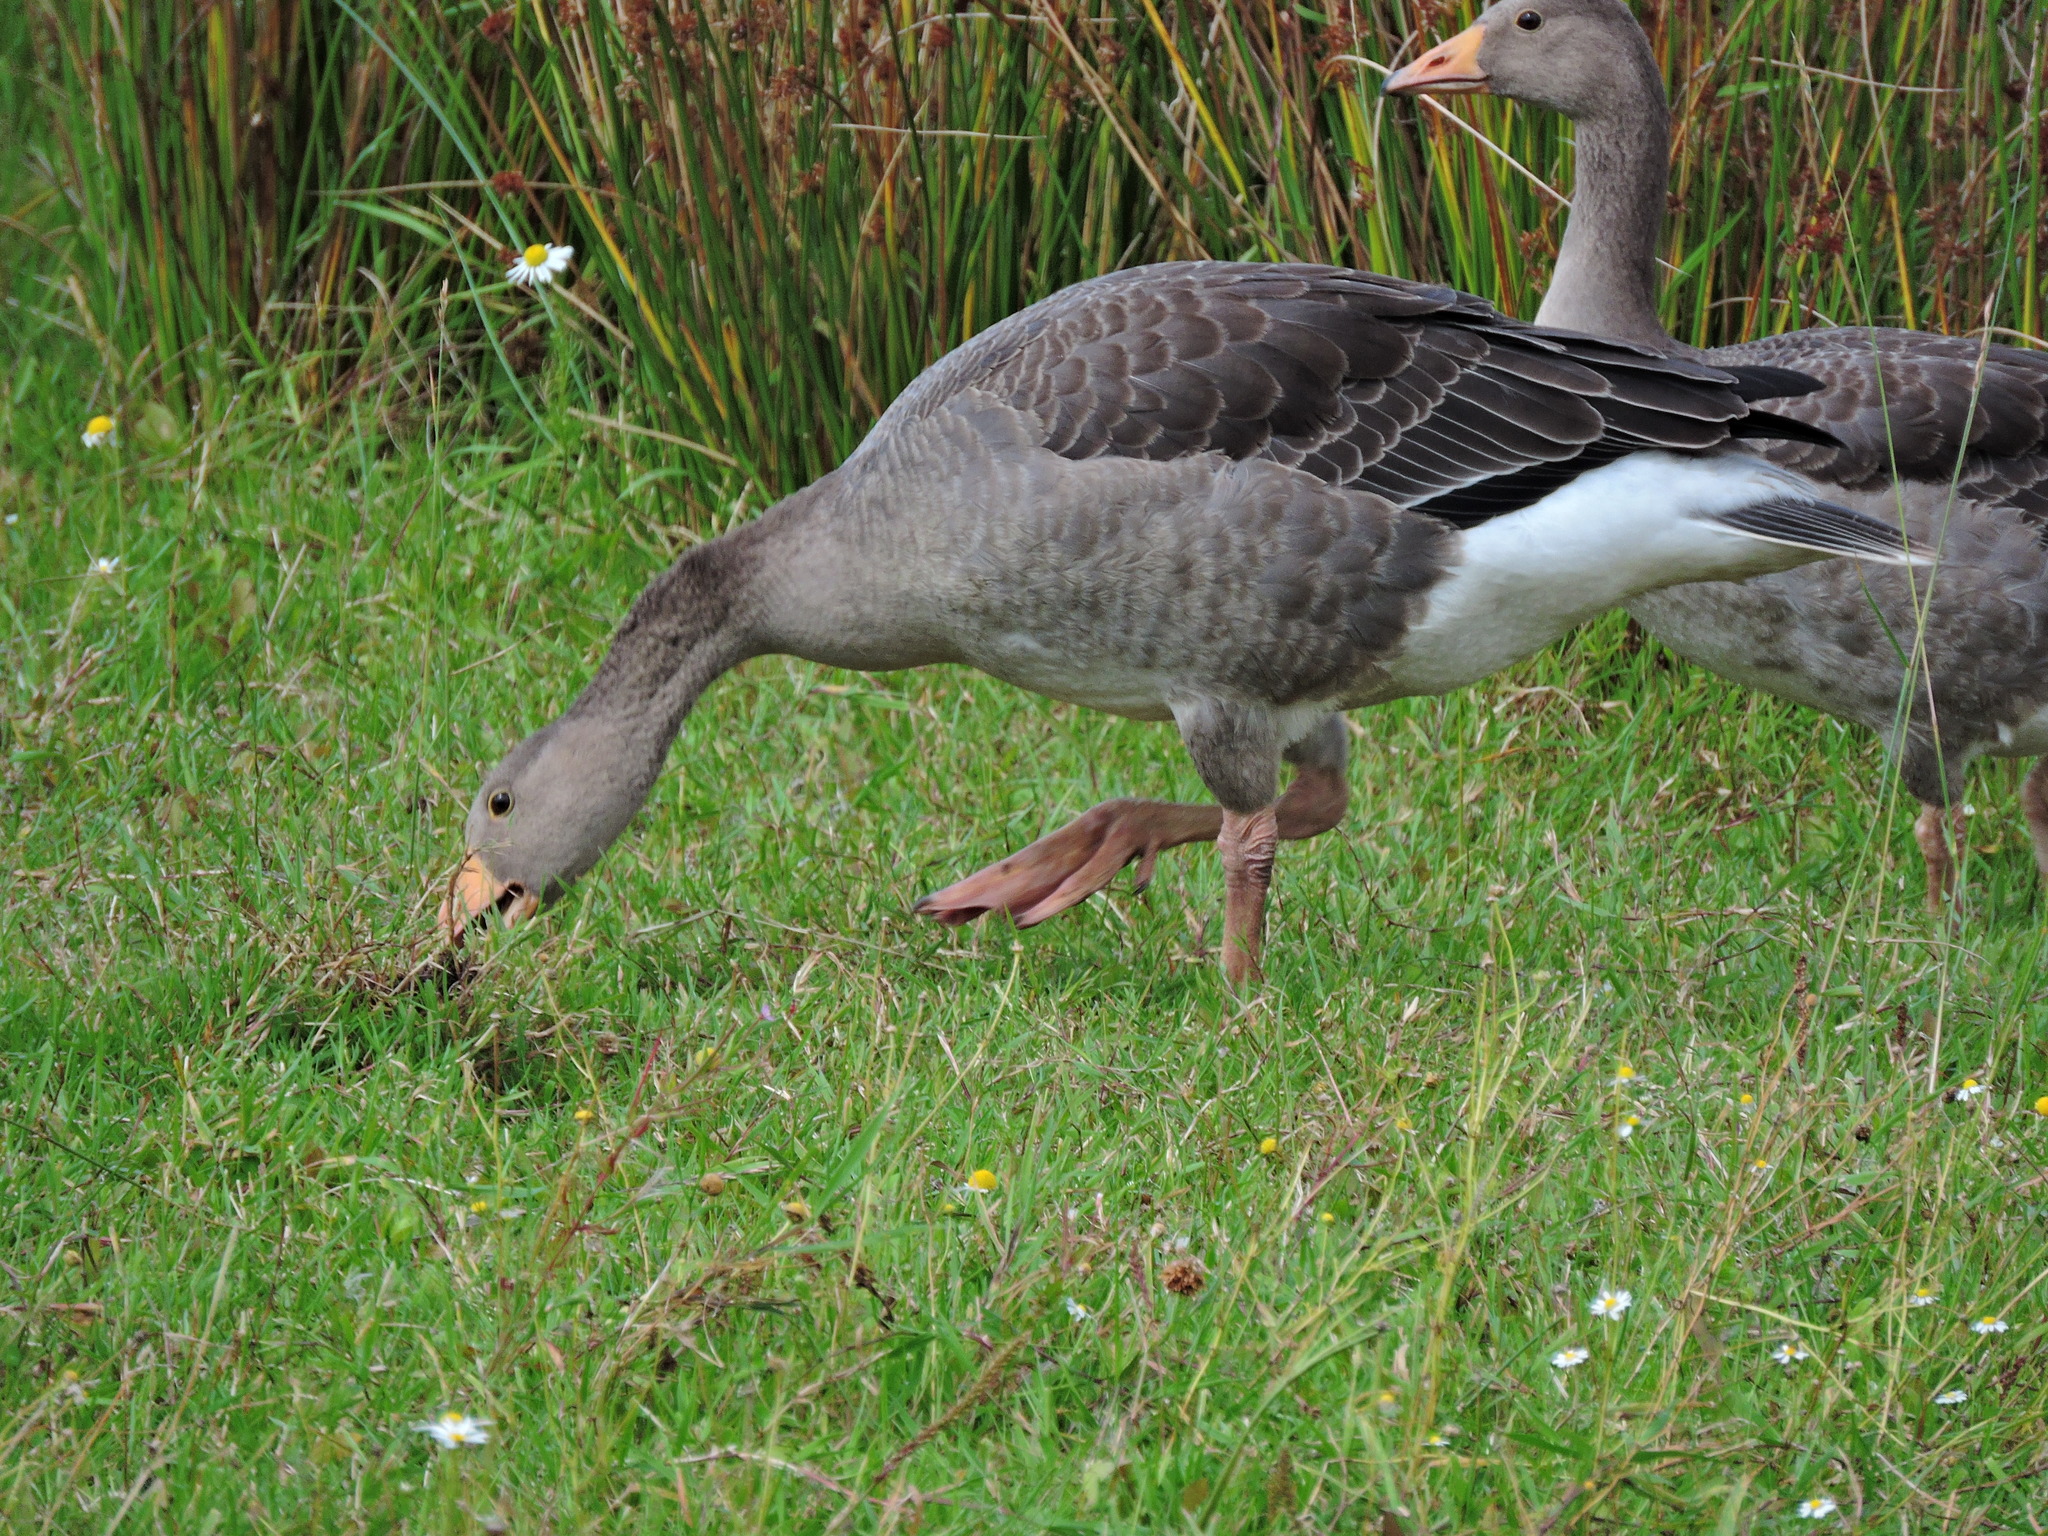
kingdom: Animalia
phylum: Chordata
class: Aves
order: Anseriformes
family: Anatidae
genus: Anser
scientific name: Anser anser
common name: Greylag goose
